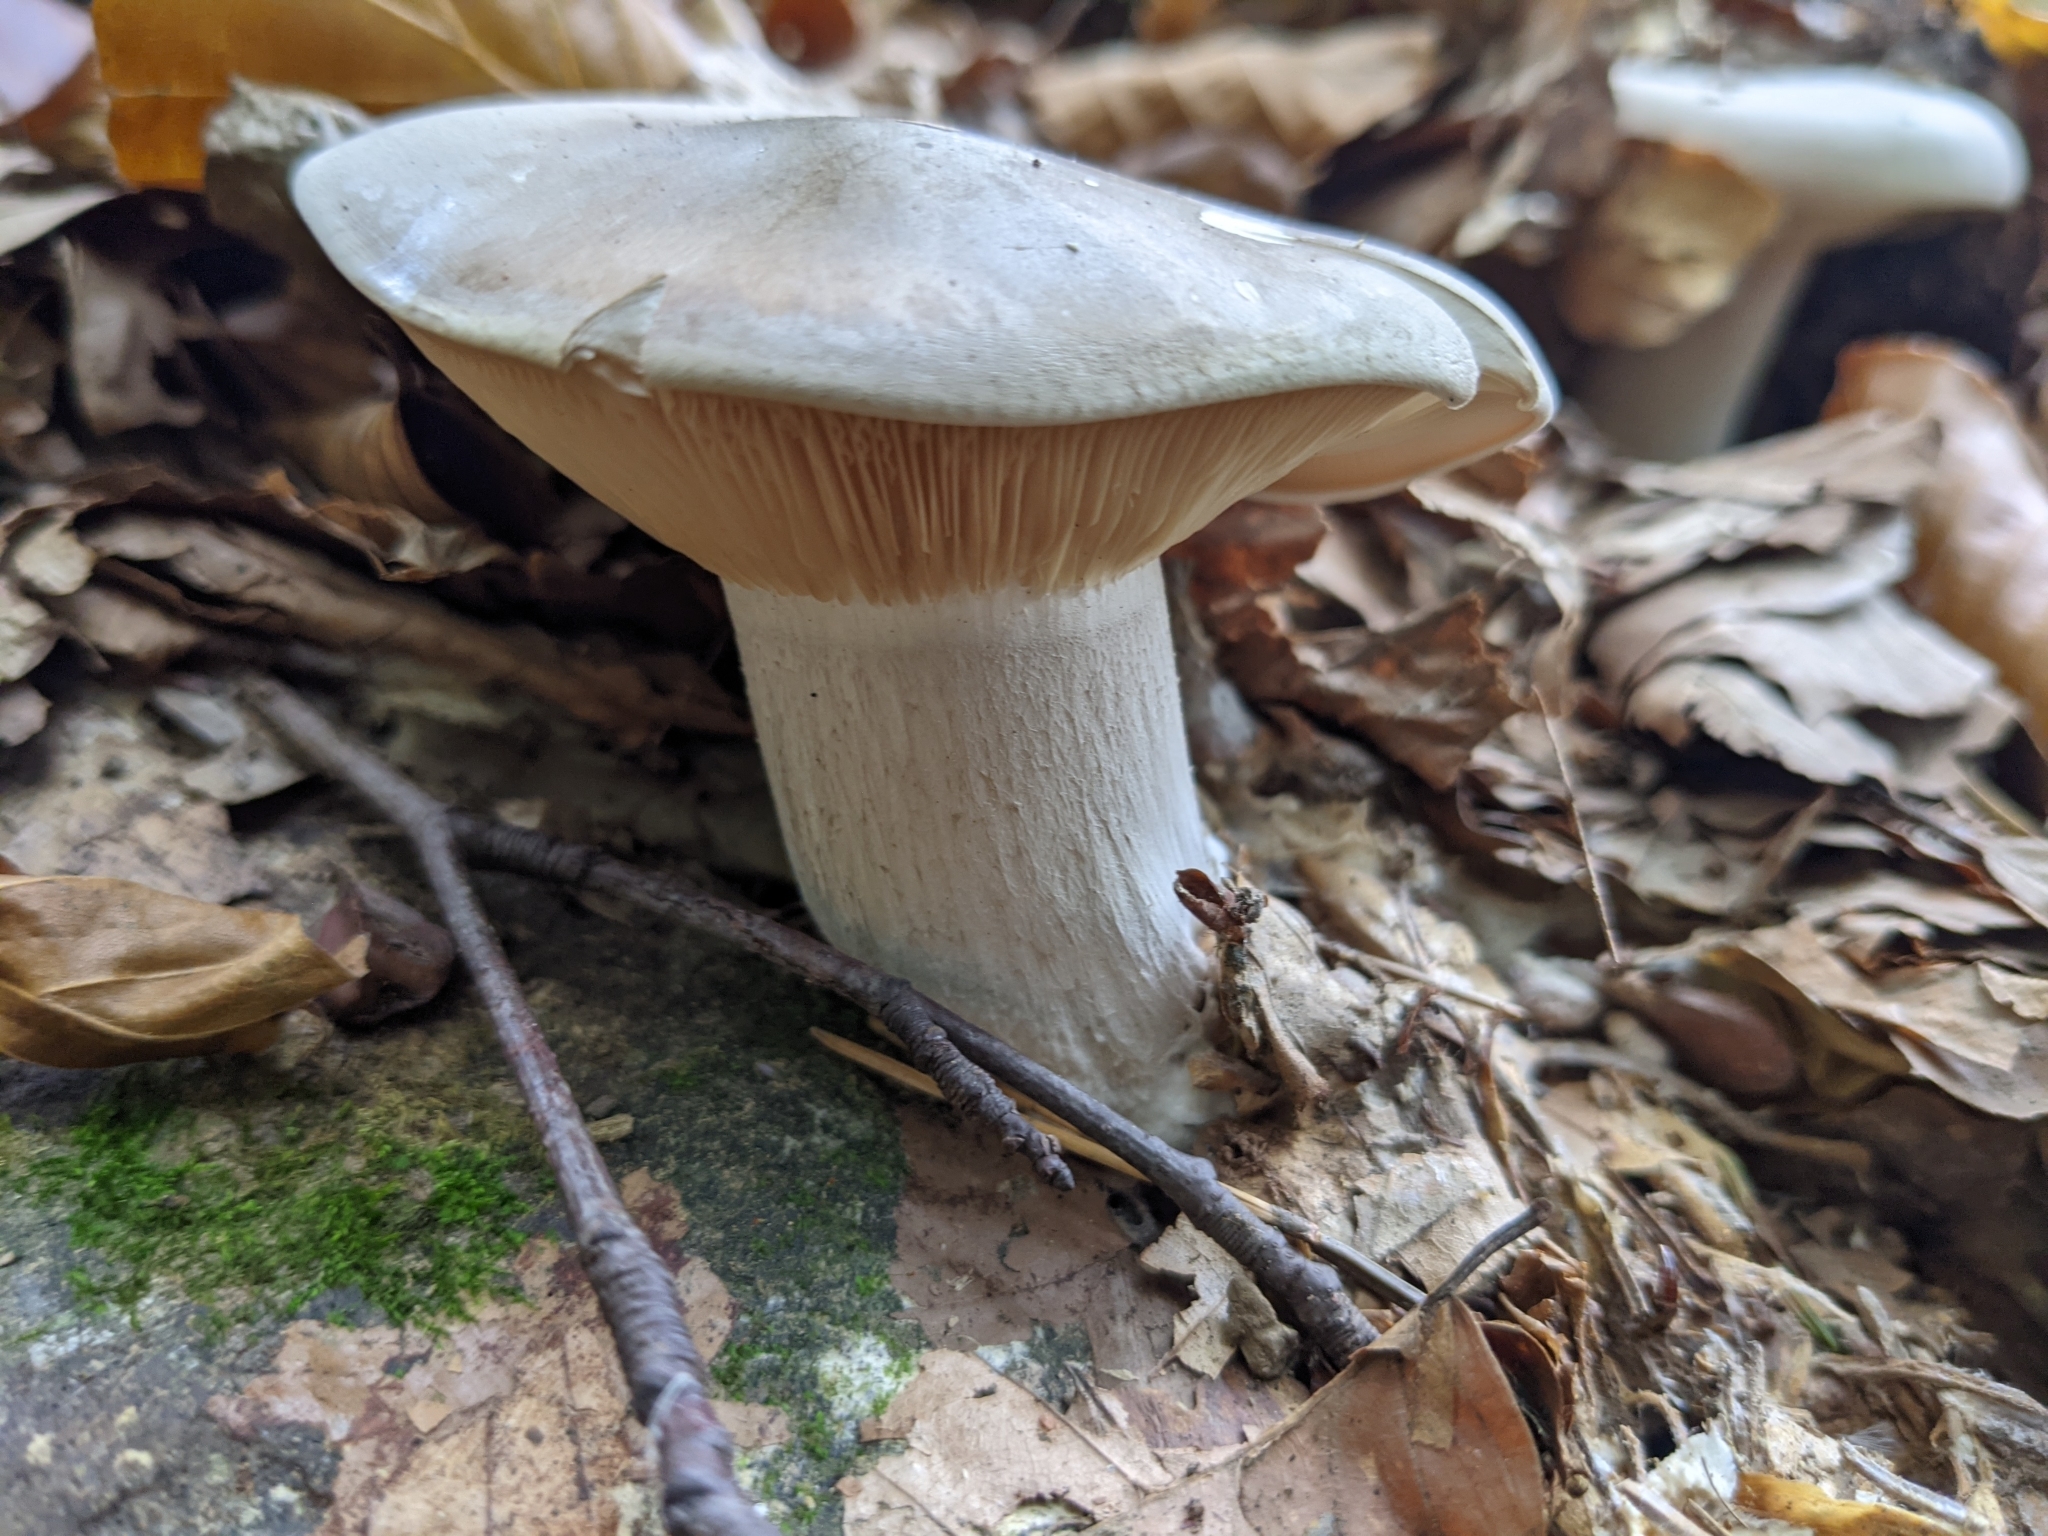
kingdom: Fungi
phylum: Basidiomycota
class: Agaricomycetes
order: Agaricales
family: Tricholomataceae
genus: Clitocybe
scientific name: Clitocybe nebularis
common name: Clouded agaric
